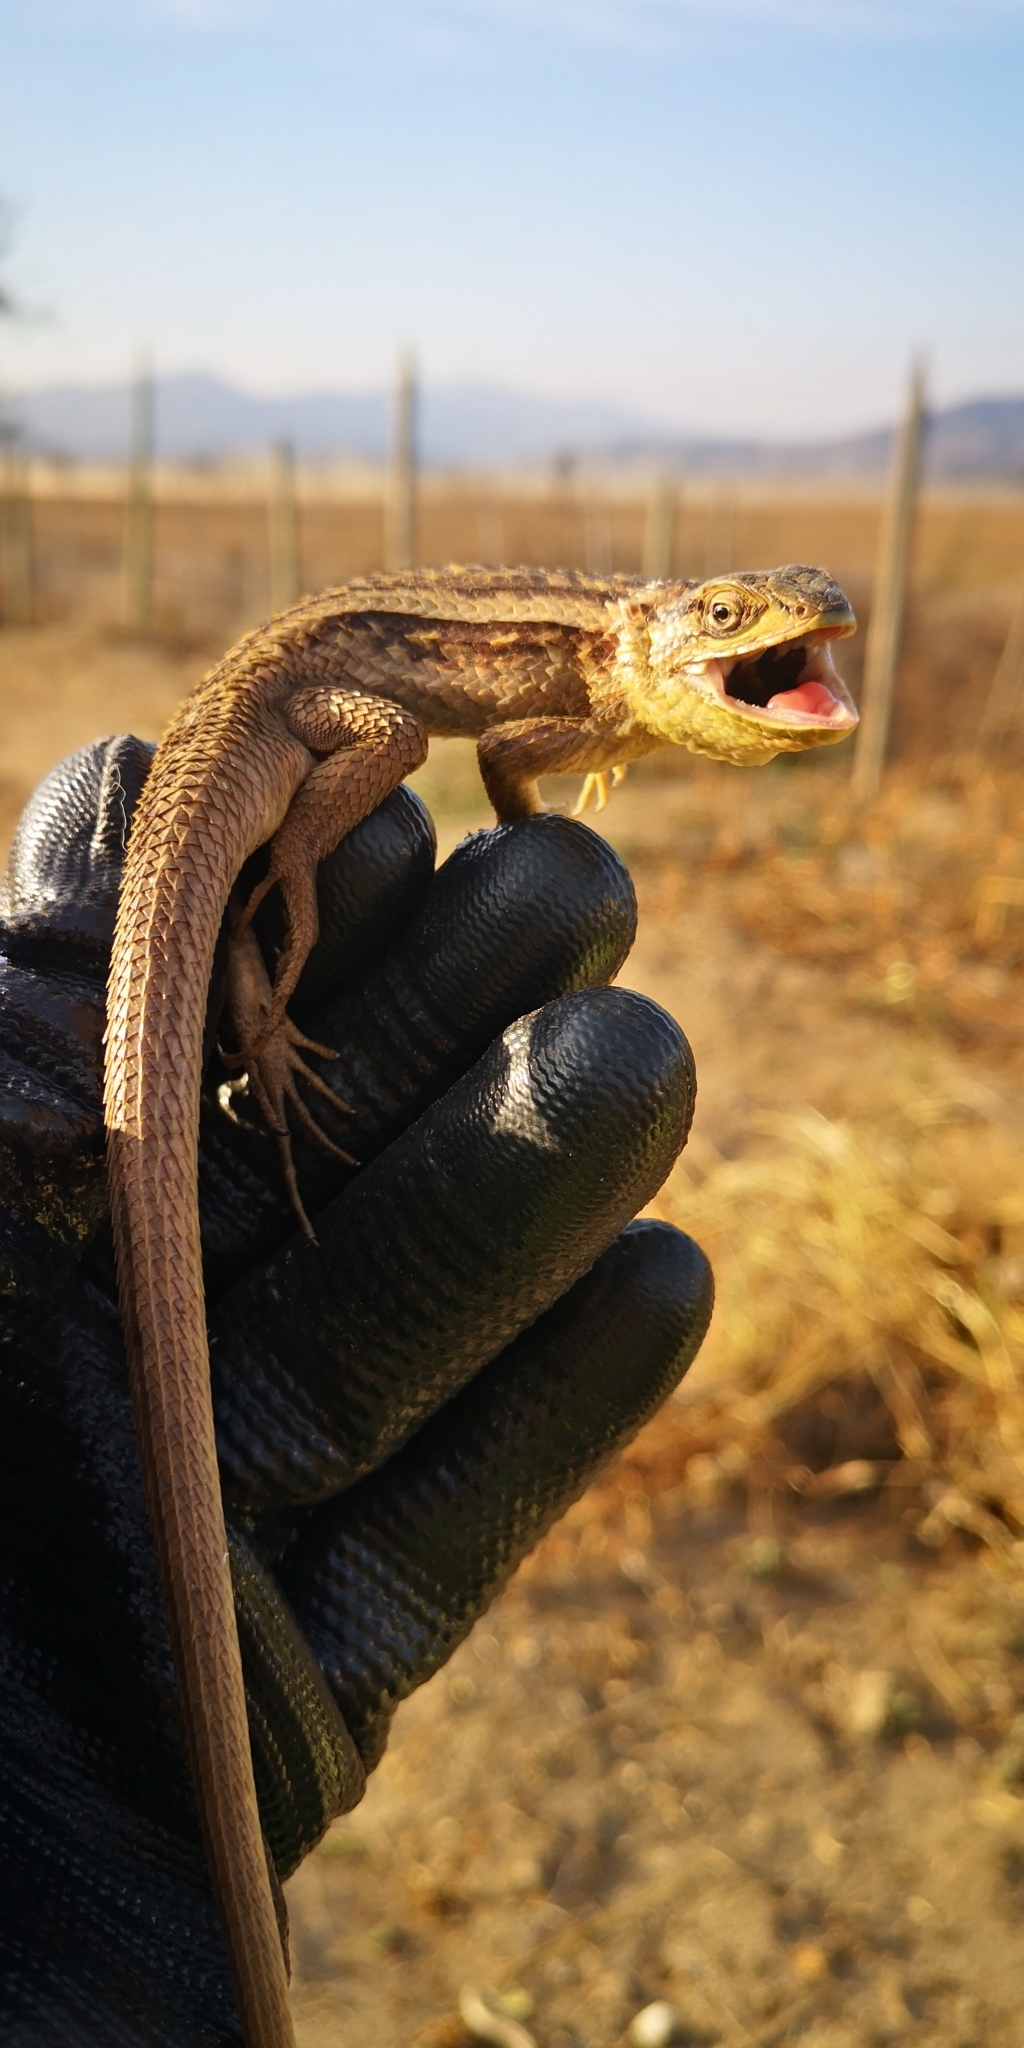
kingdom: Animalia
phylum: Chordata
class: Squamata
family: Liolaemidae
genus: Liolaemus
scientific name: Liolaemus chiliensis
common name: Chilean tree iguana
